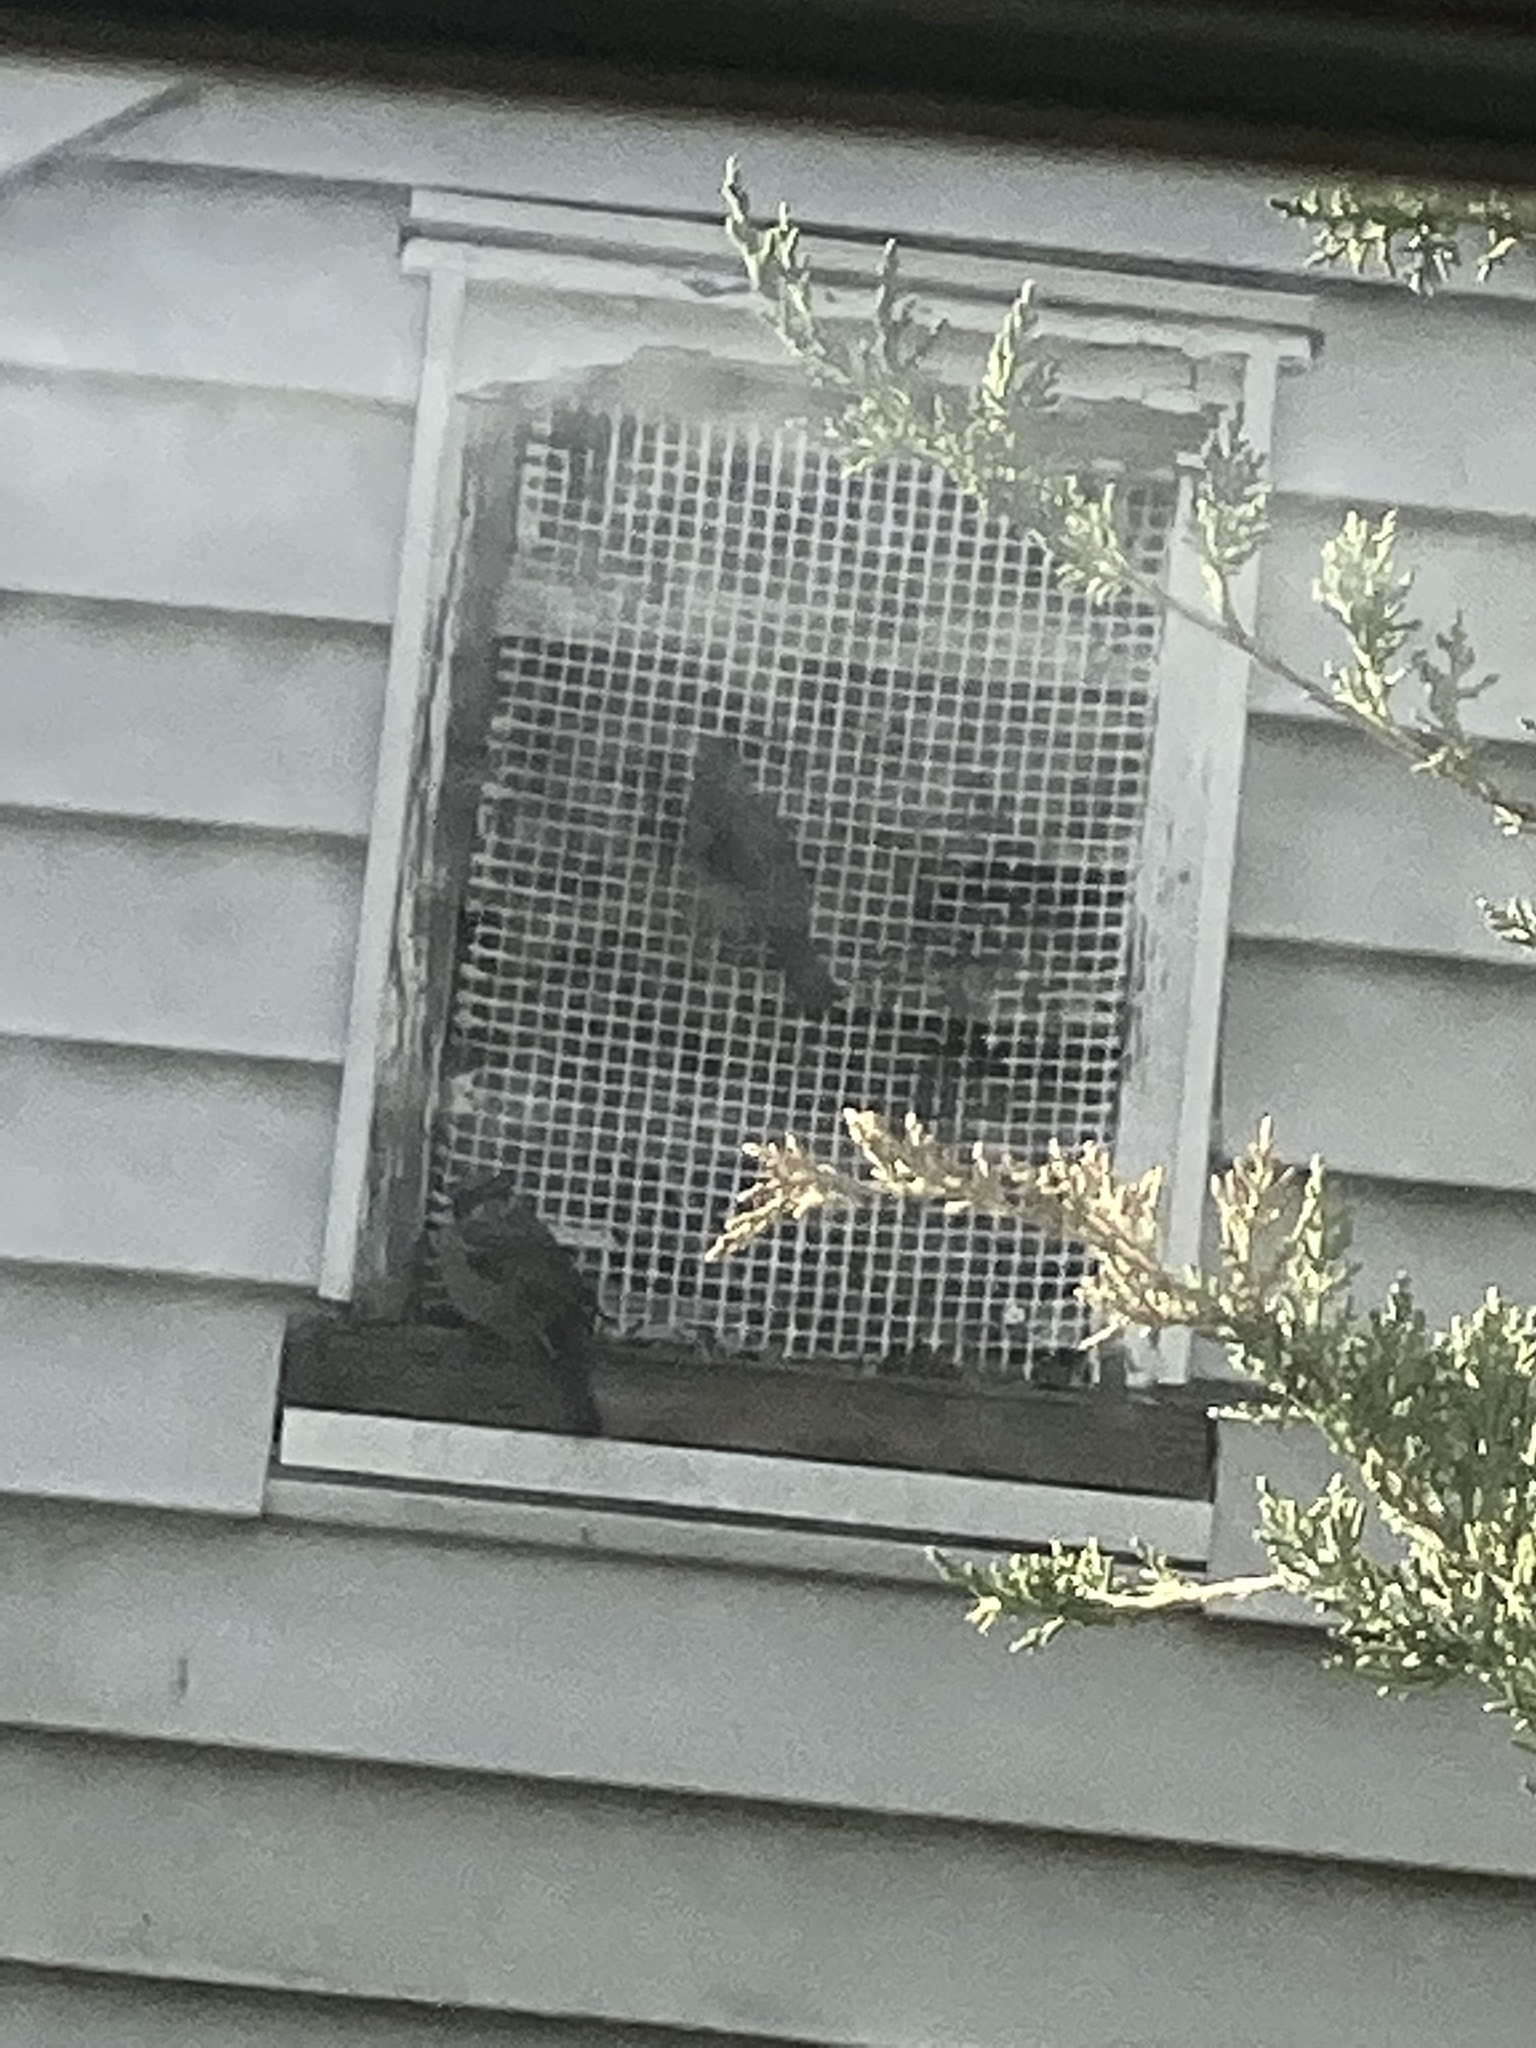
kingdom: Animalia
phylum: Chordata
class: Aves
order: Passeriformes
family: Passeridae
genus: Passer
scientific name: Passer domesticus
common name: House sparrow
